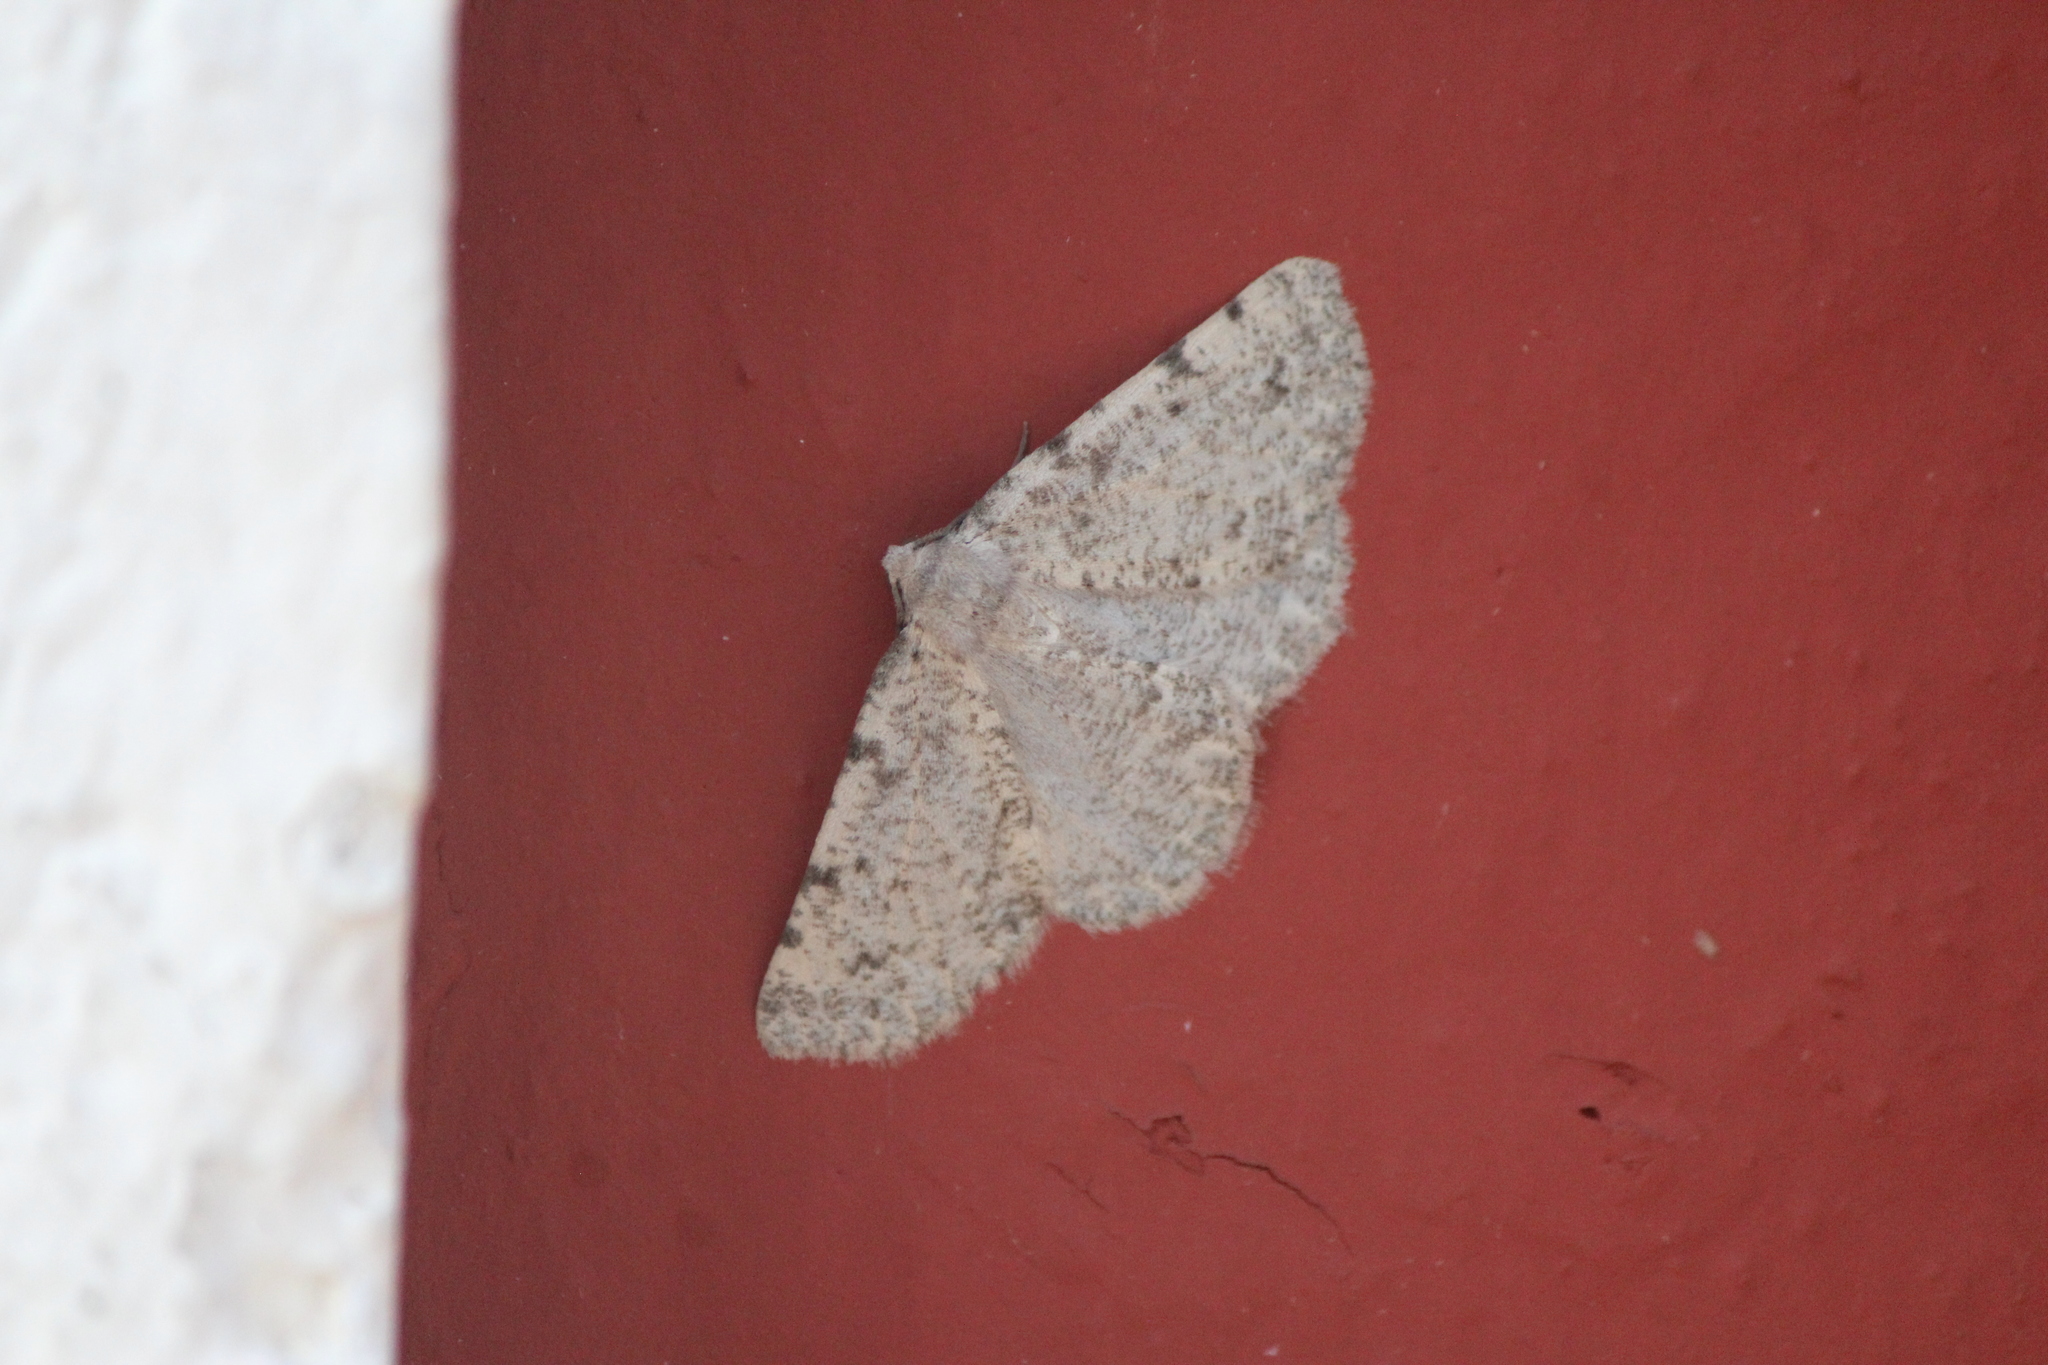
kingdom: Animalia
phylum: Arthropoda
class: Insecta
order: Lepidoptera
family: Geometridae
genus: Meris
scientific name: Meris paradoxa
